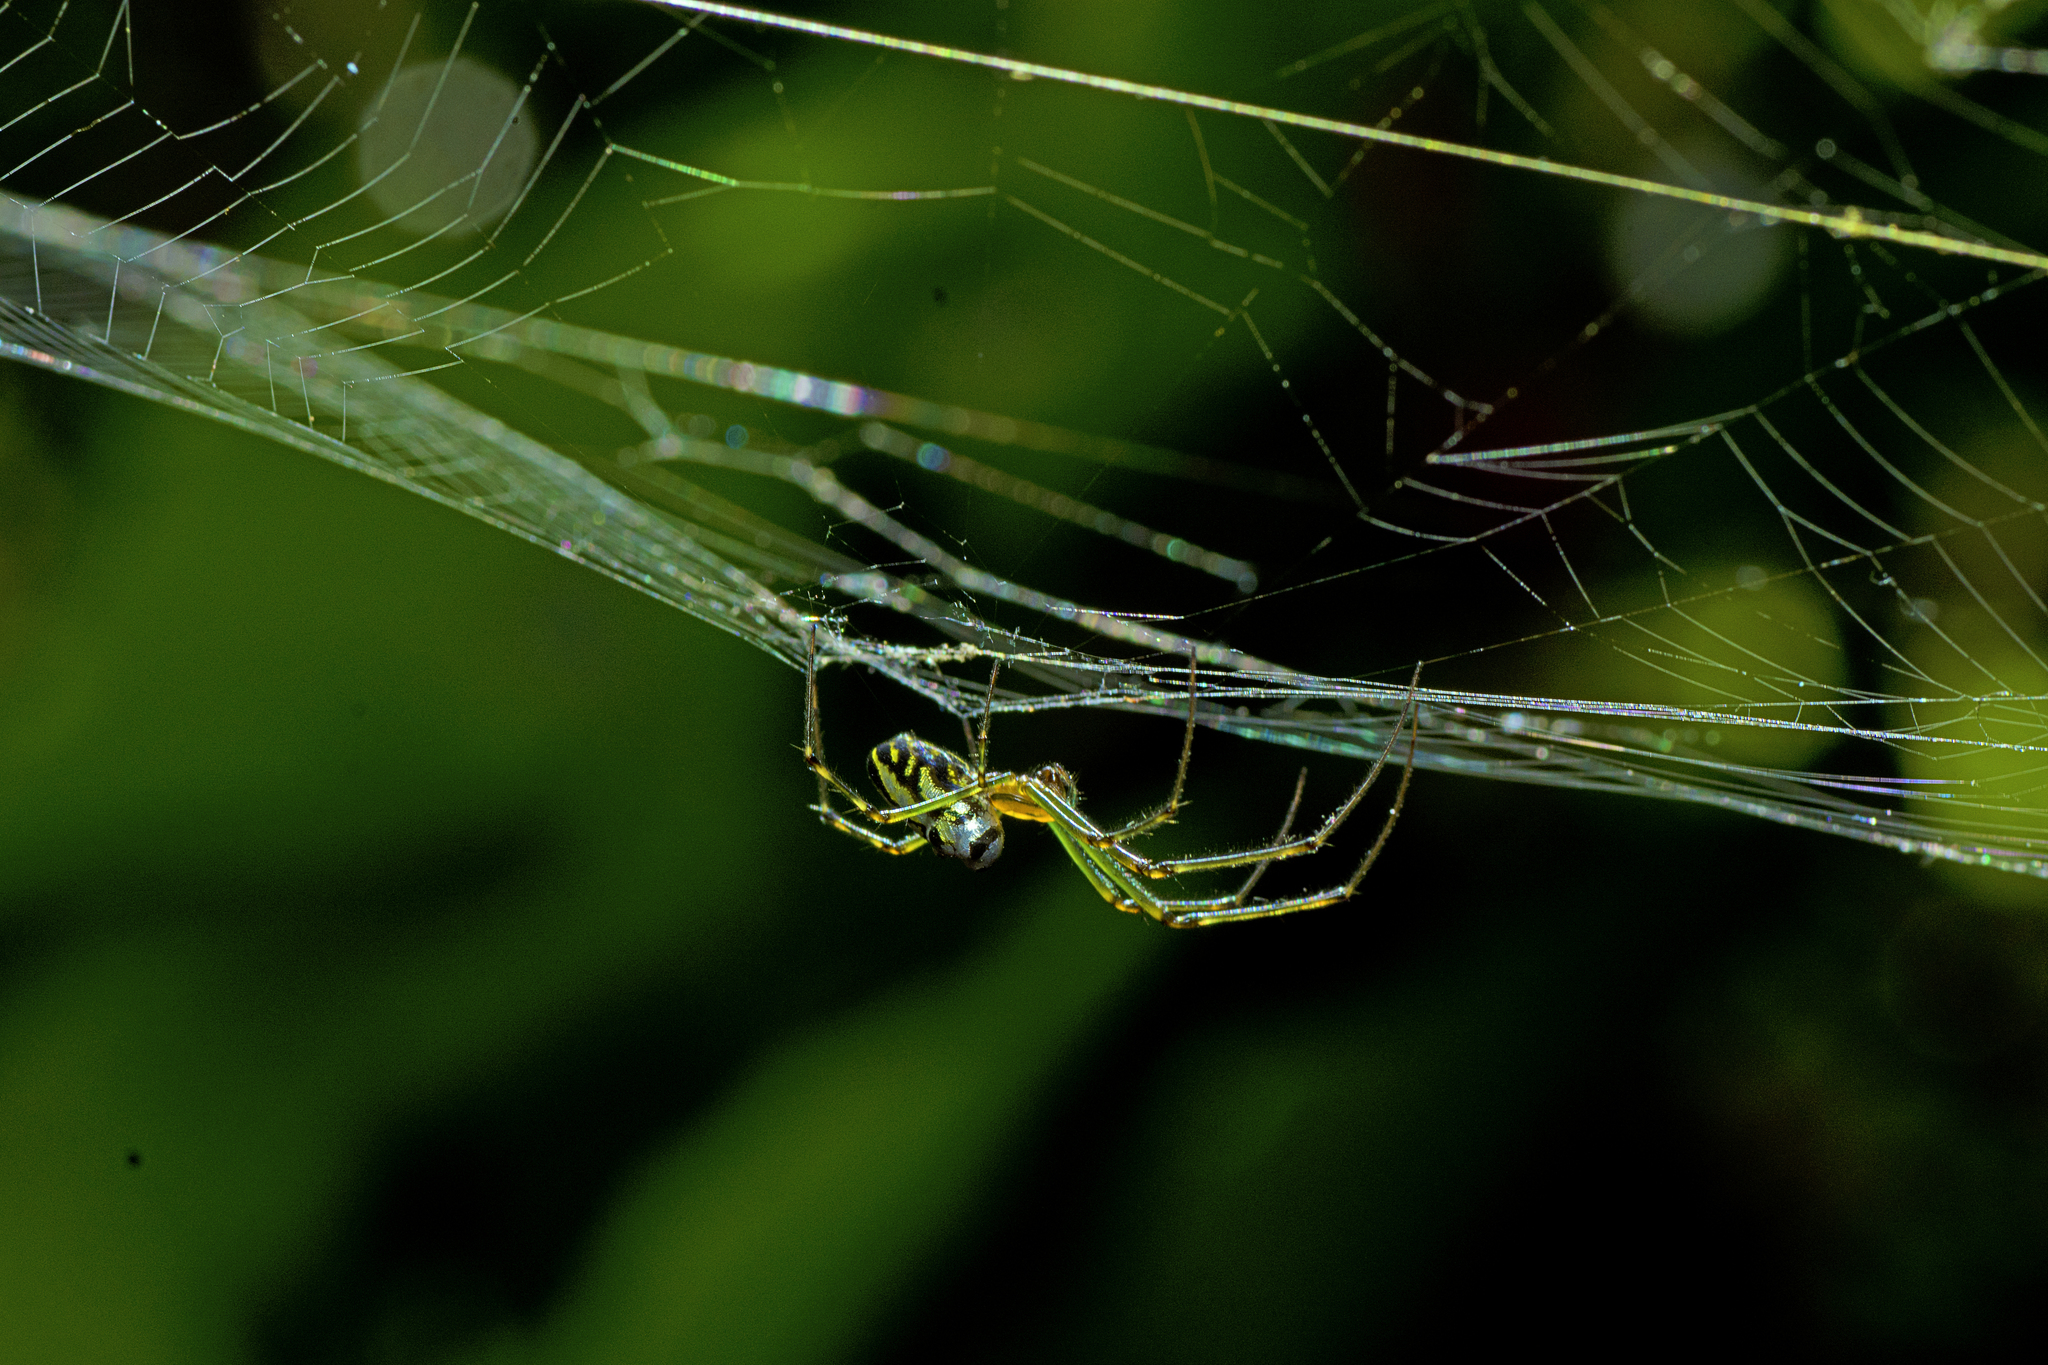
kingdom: Animalia
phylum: Arthropoda
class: Arachnida
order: Araneae
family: Tetragnathidae
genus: Leucauge
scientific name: Leucauge dromedaria
